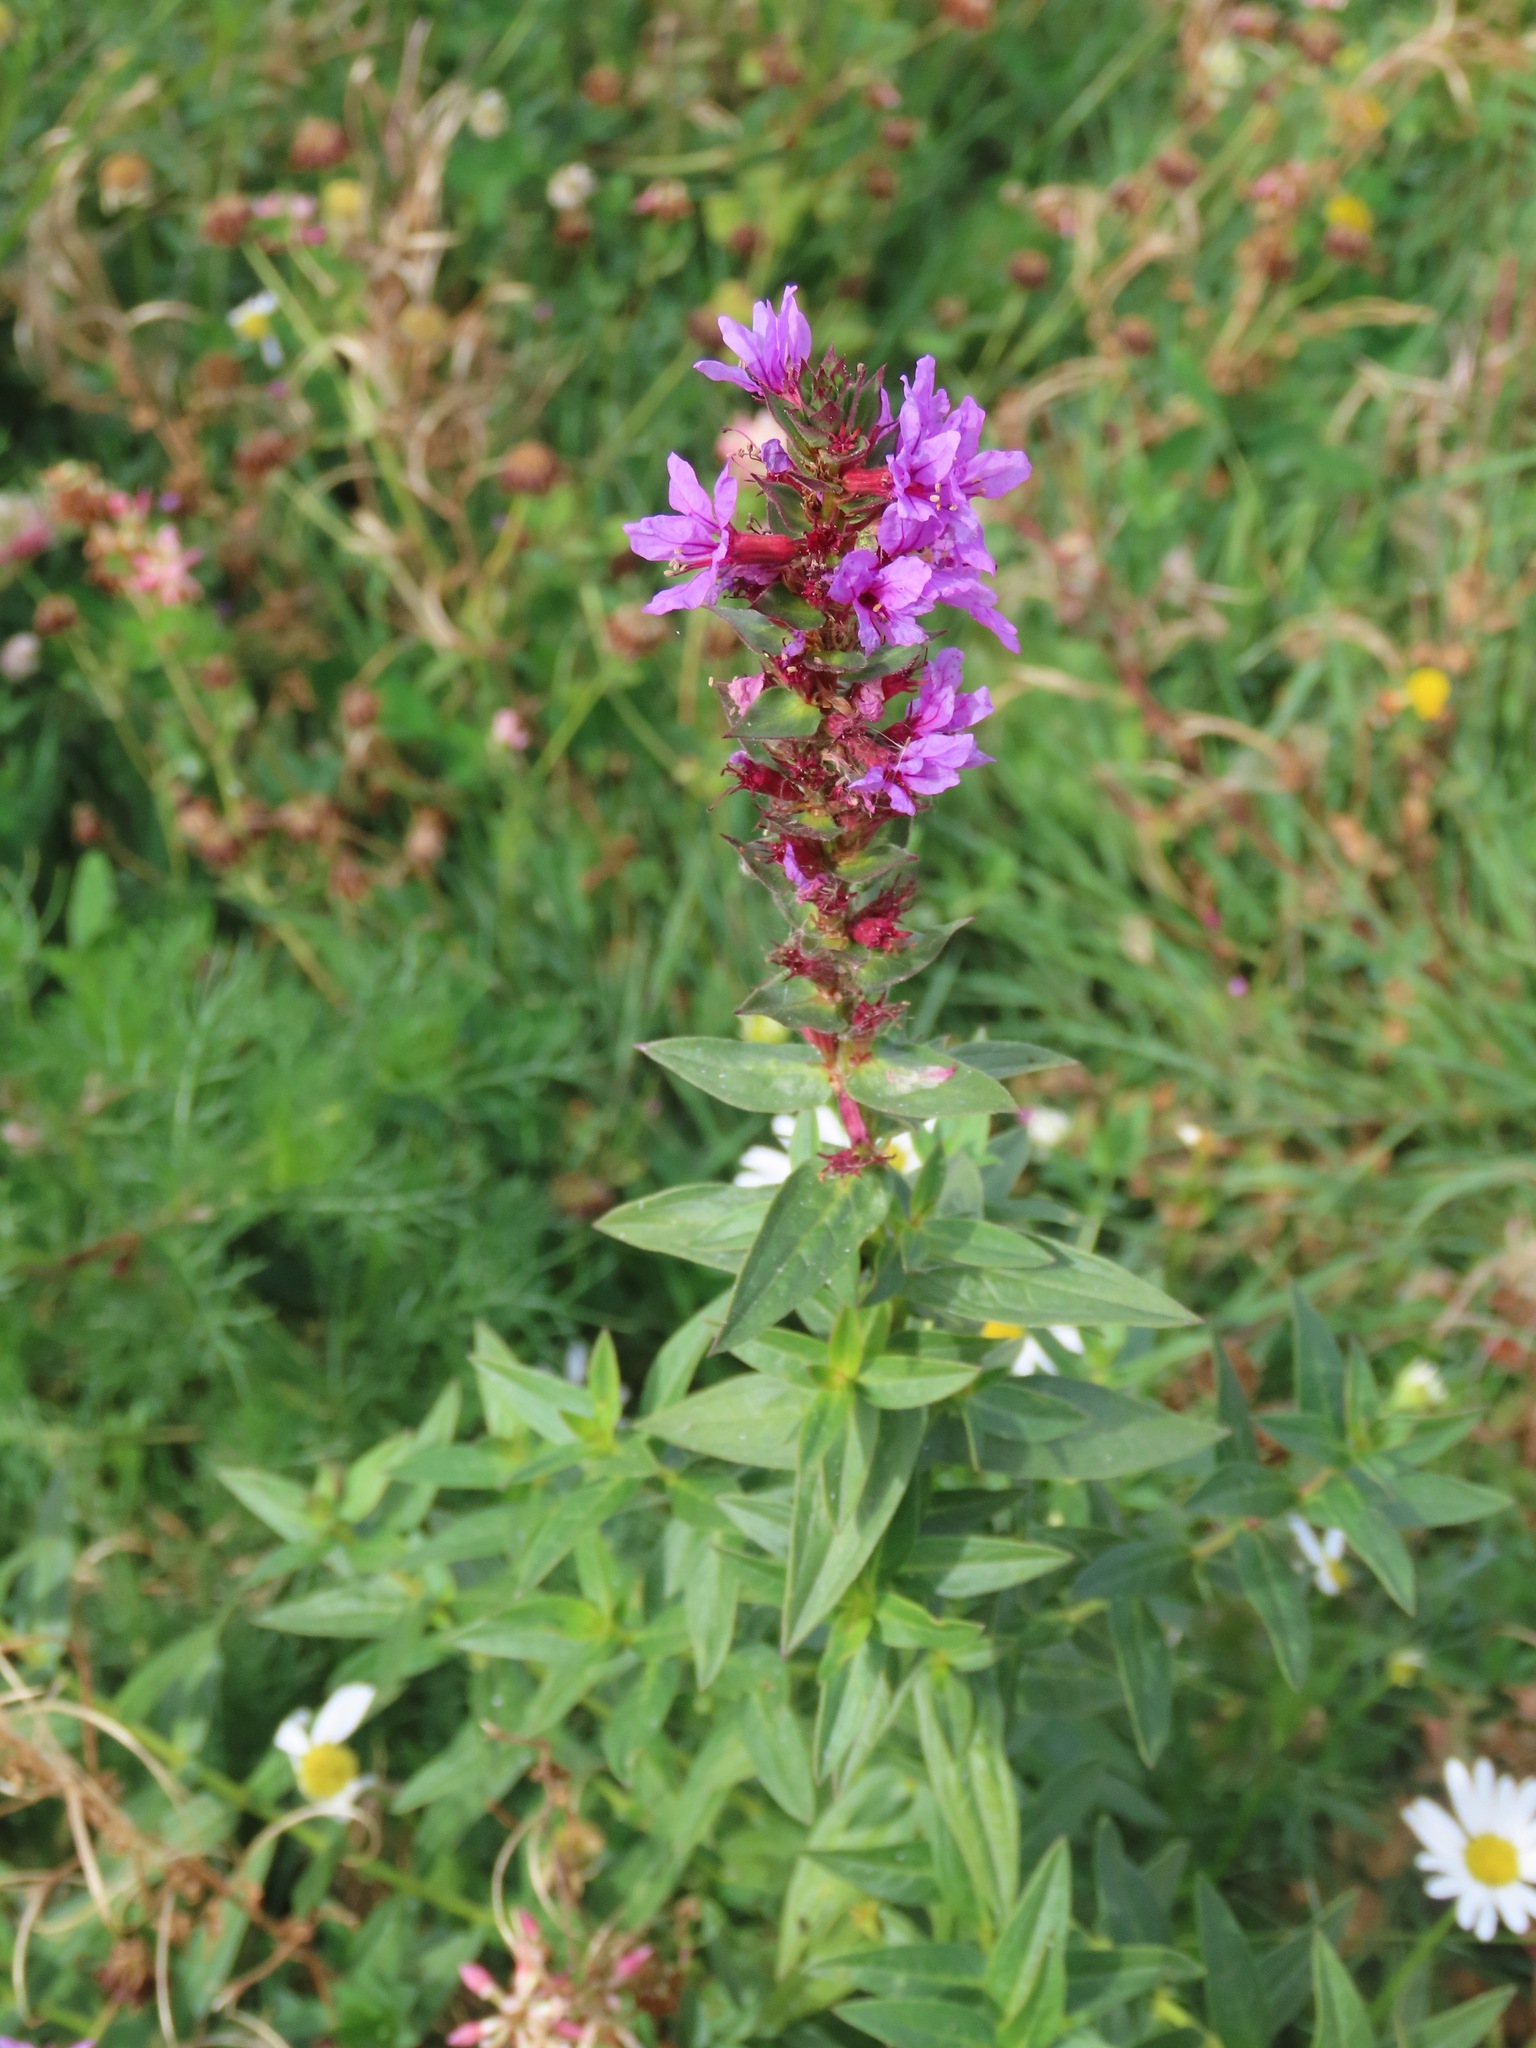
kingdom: Plantae
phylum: Tracheophyta
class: Magnoliopsida
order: Myrtales
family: Lythraceae
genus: Lythrum
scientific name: Lythrum salicaria
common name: Purple loosestrife
